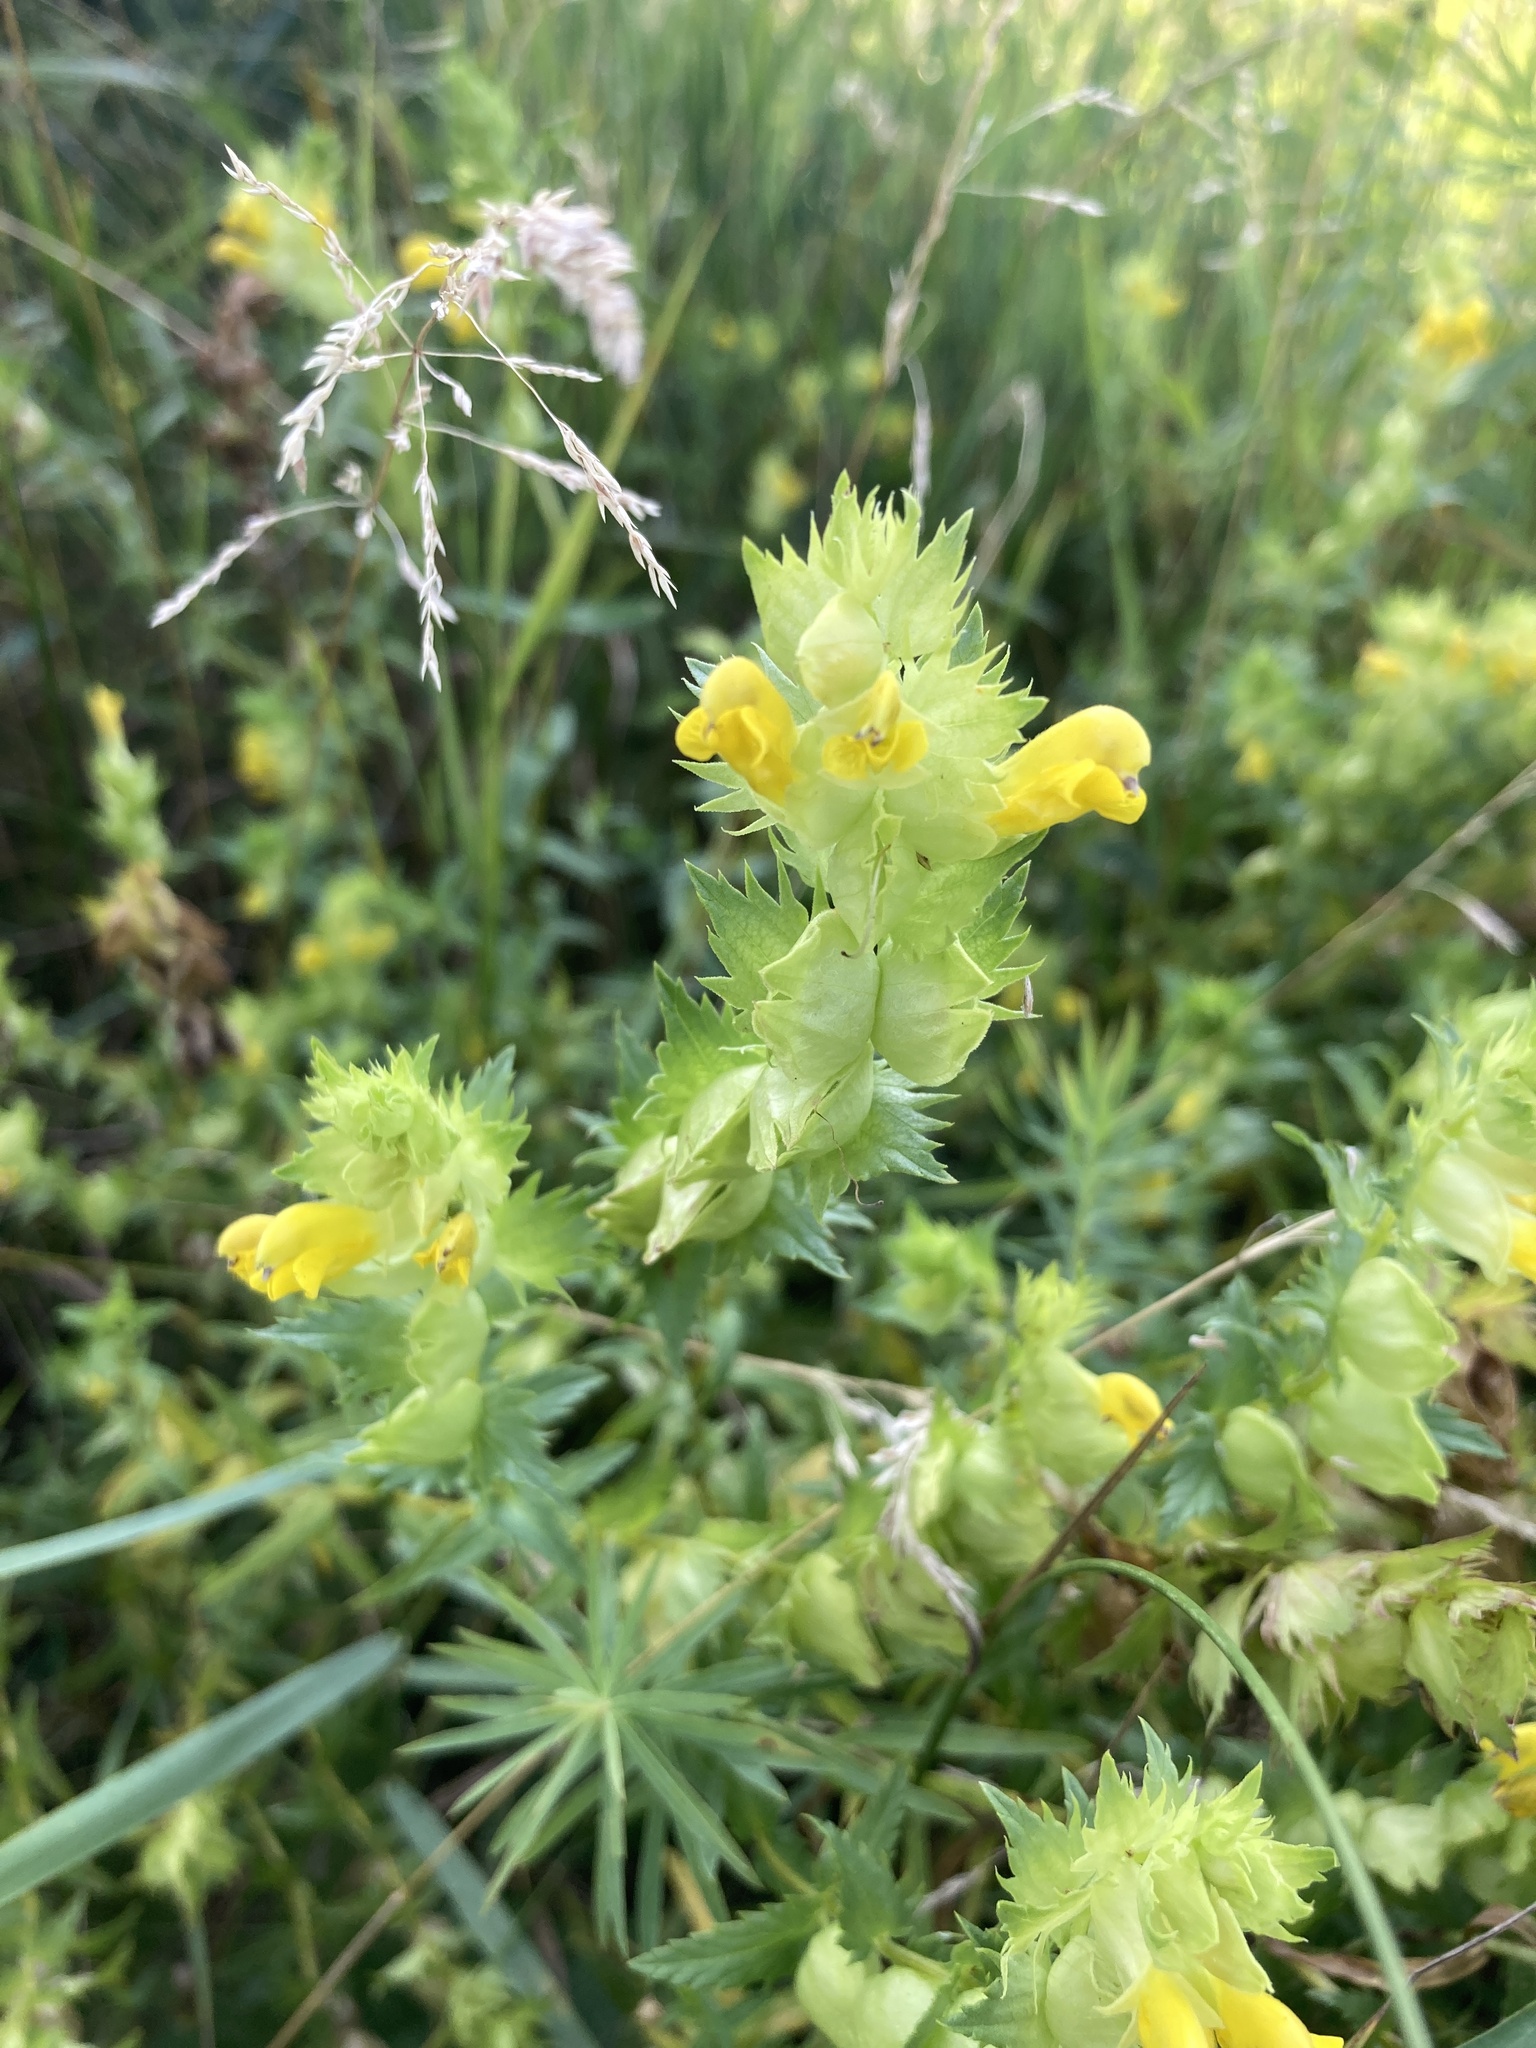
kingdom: Plantae
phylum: Tracheophyta
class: Magnoliopsida
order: Lamiales
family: Orobanchaceae
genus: Rhinanthus
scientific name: Rhinanthus serotinus
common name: Late-flowering yellow rattle
